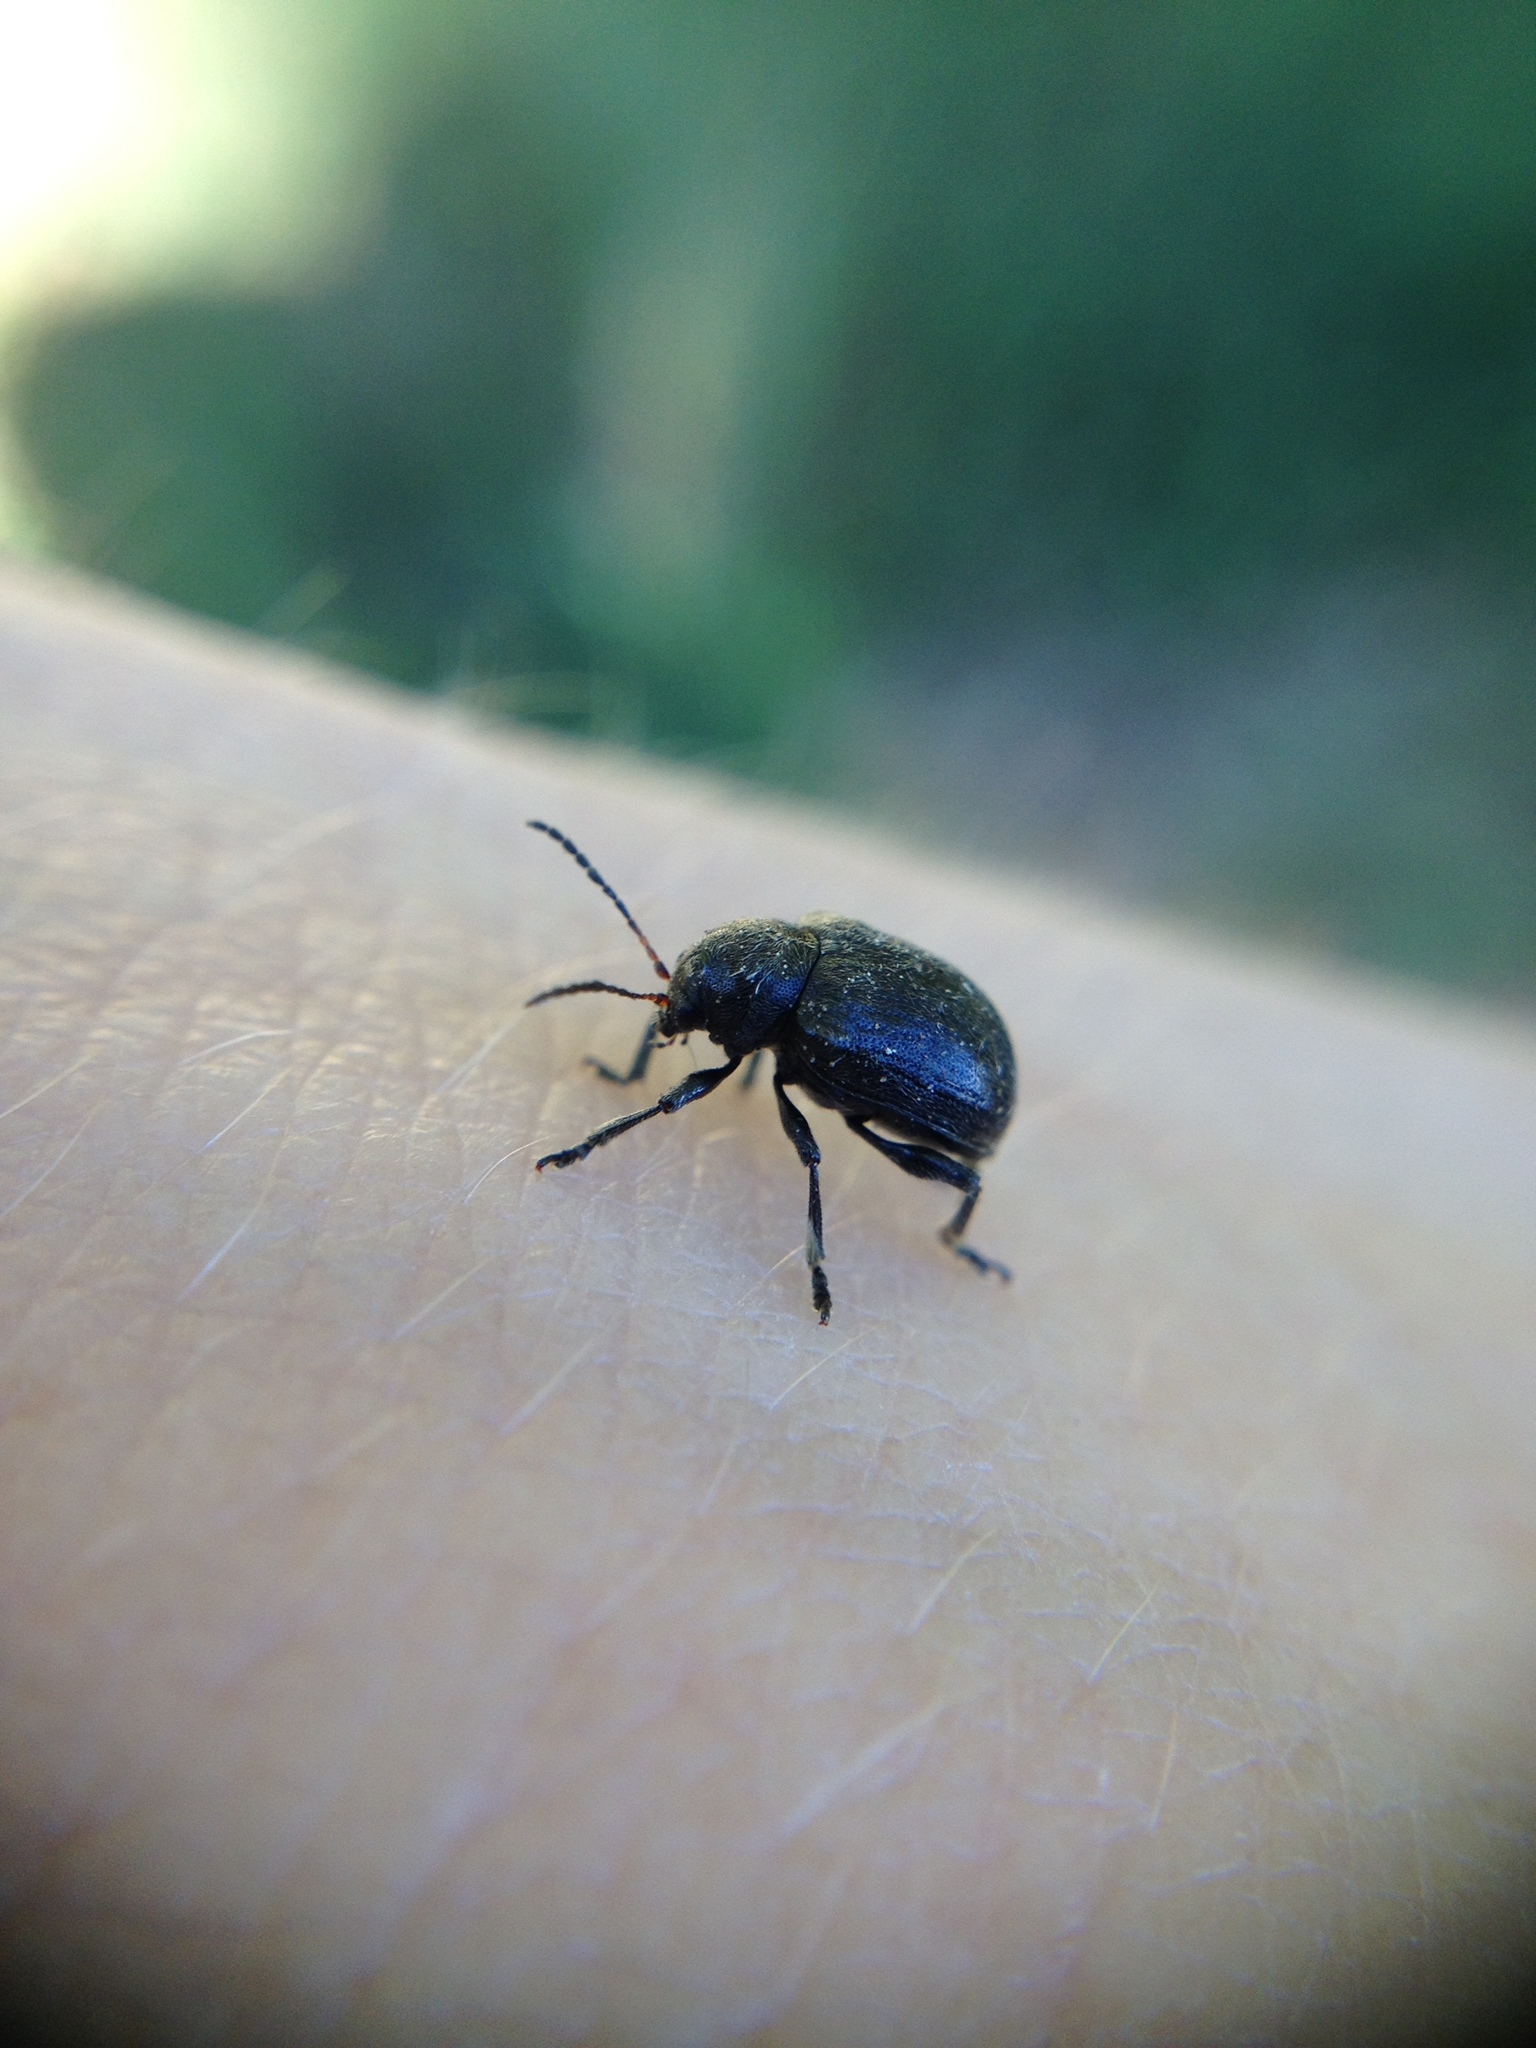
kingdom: Animalia
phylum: Arthropoda
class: Insecta
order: Coleoptera
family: Chrysomelidae
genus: Bromius
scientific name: Bromius obscurus
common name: Western grape rootworm
